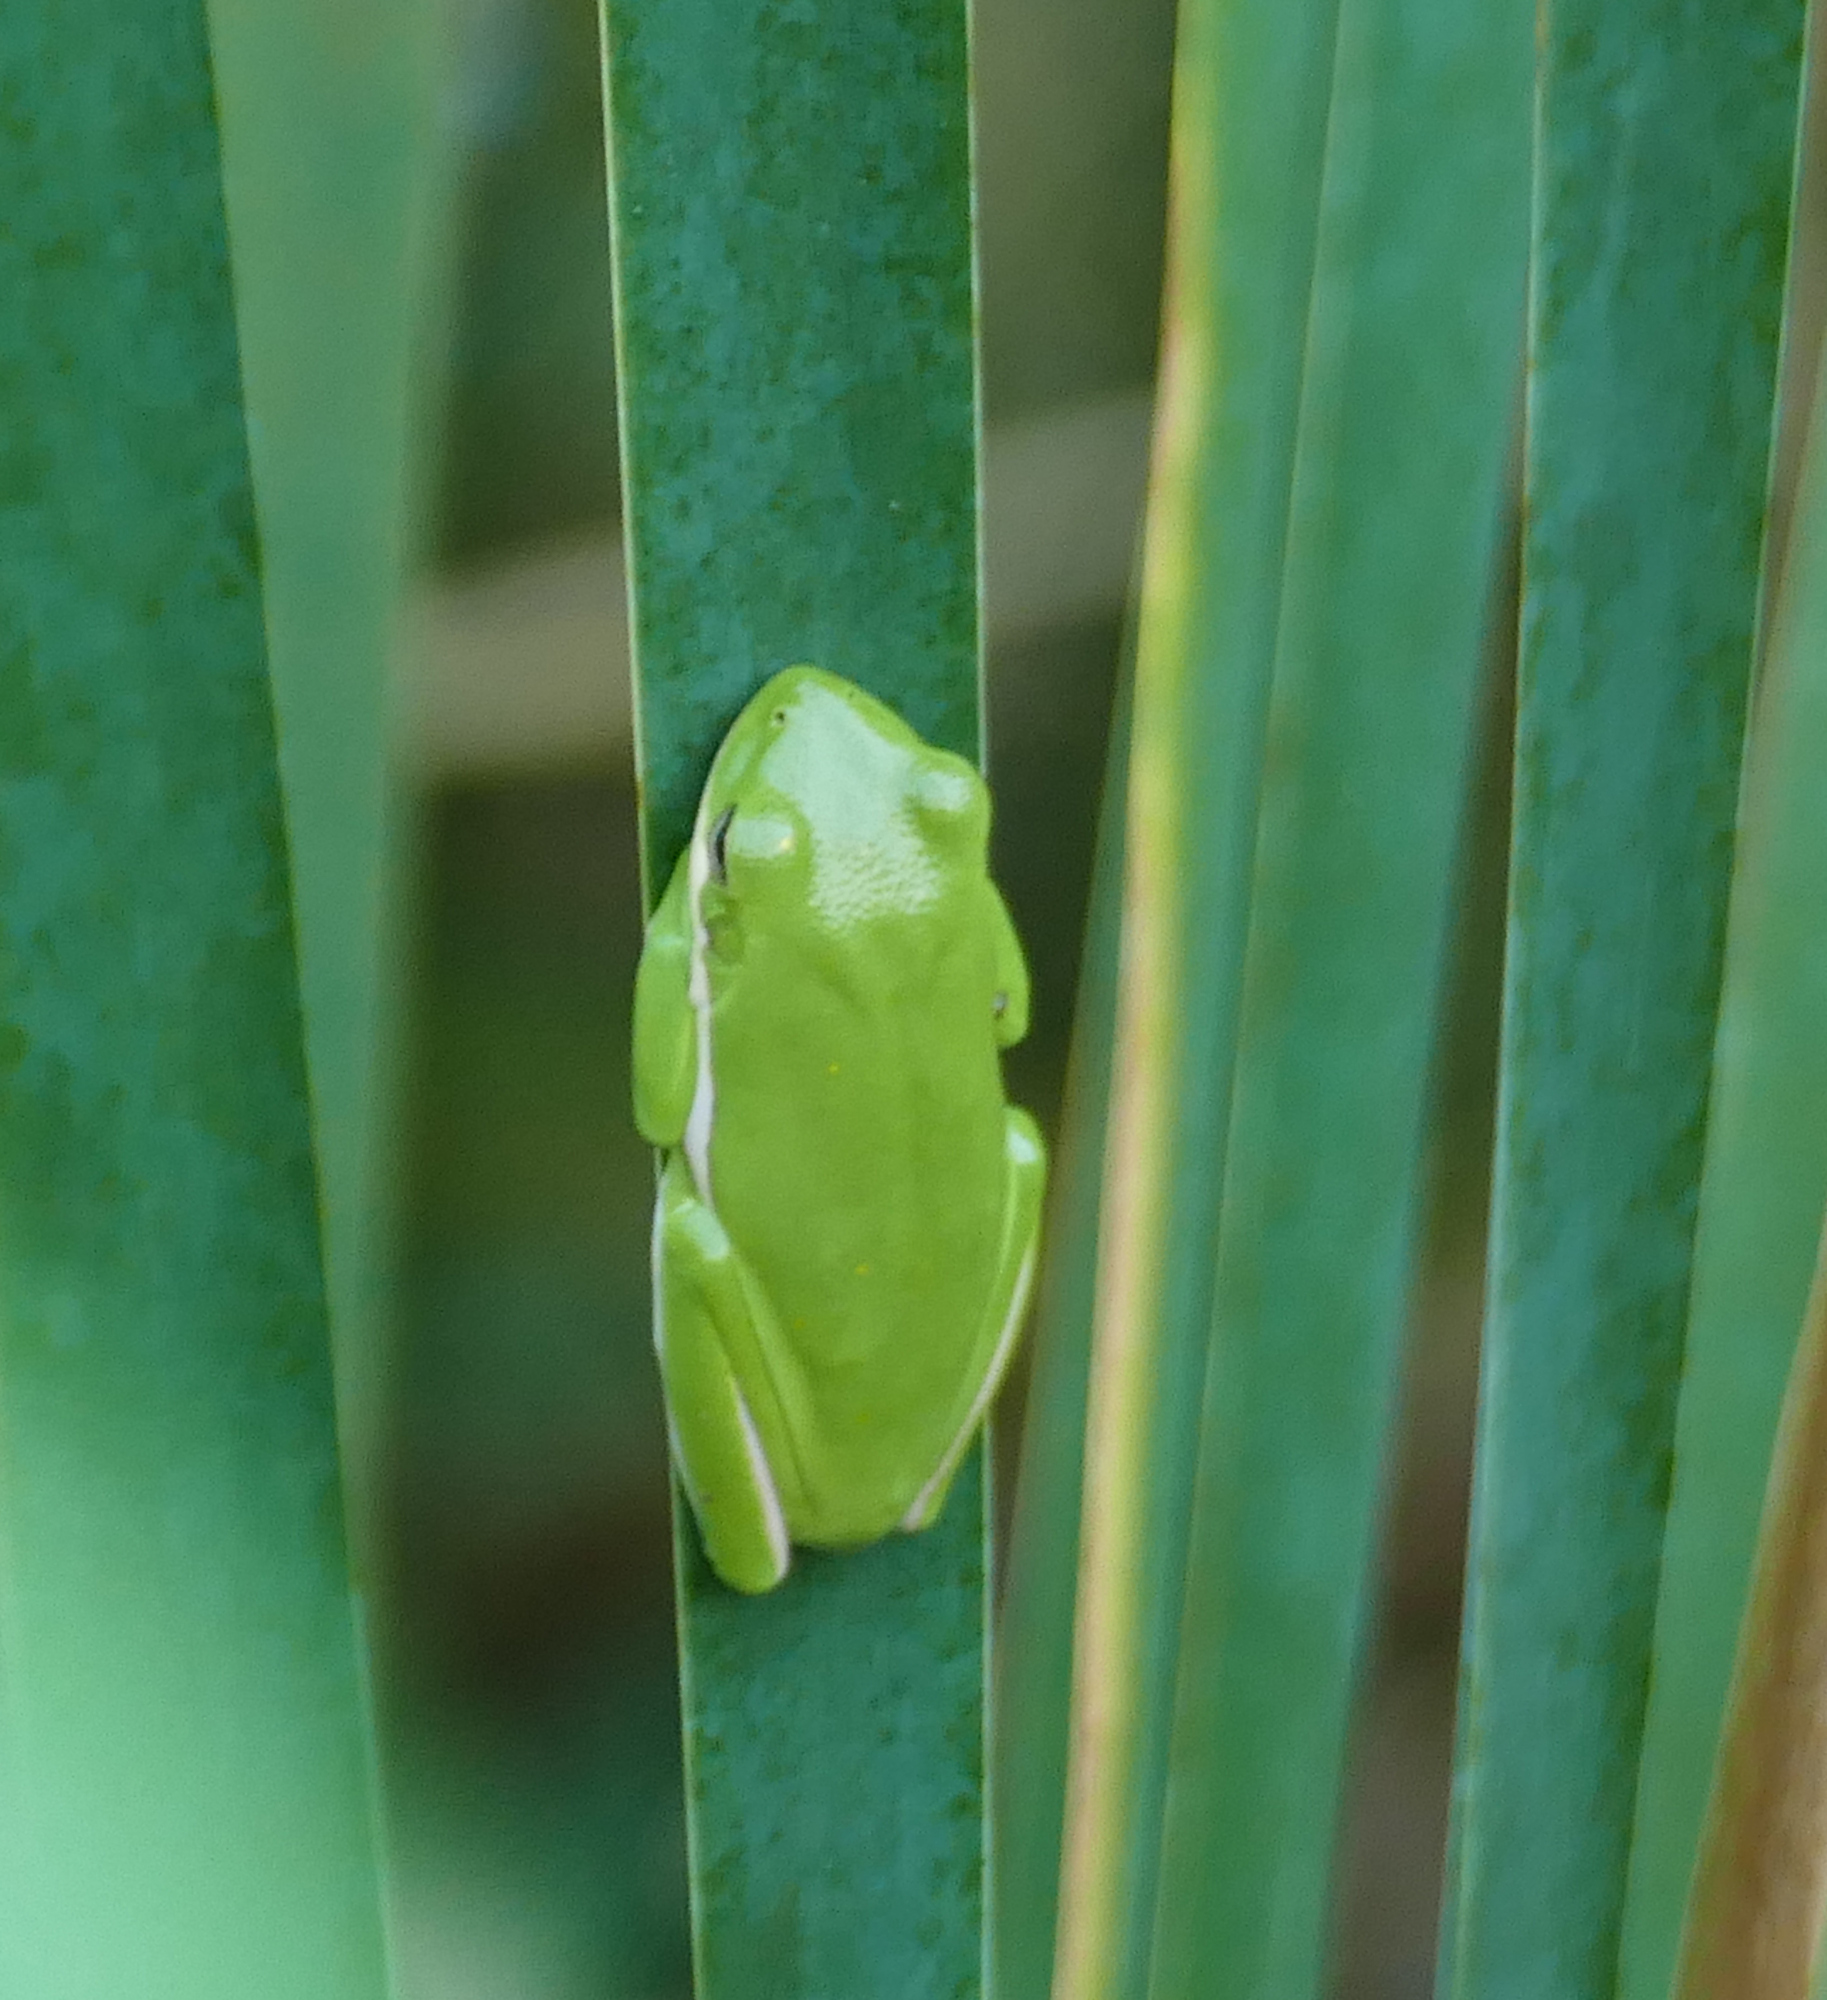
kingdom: Animalia
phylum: Chordata
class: Amphibia
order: Anura
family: Hylidae
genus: Dryophytes
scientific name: Dryophytes cinereus
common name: Green treefrog
